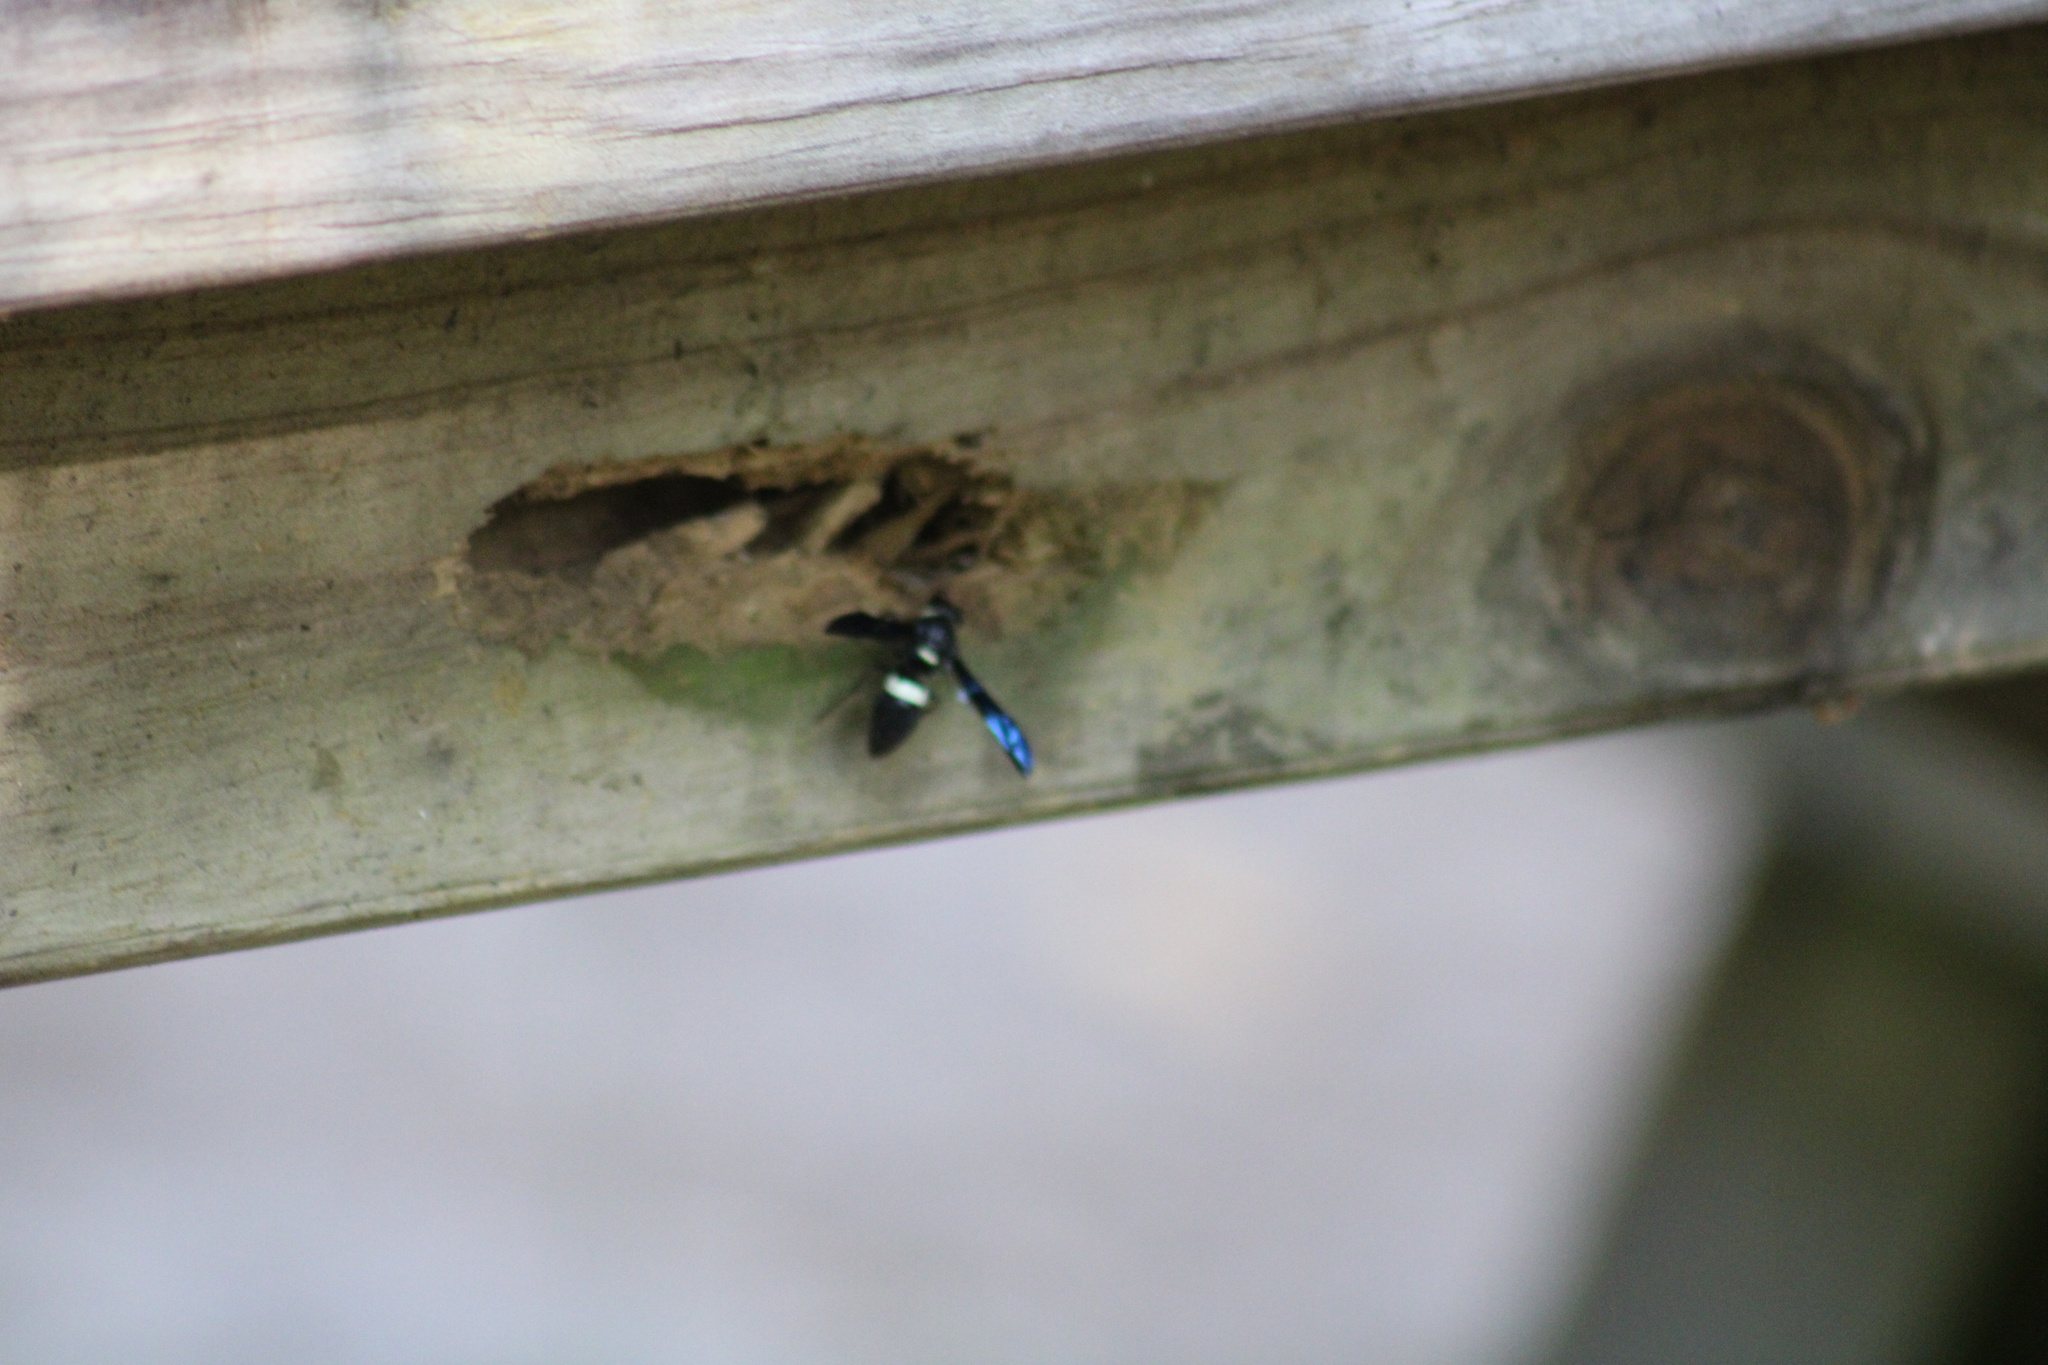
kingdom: Animalia
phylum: Arthropoda
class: Insecta
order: Hymenoptera
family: Eumenidae
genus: Monobia
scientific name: Monobia quadridens
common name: Four-toothed mason wasp
